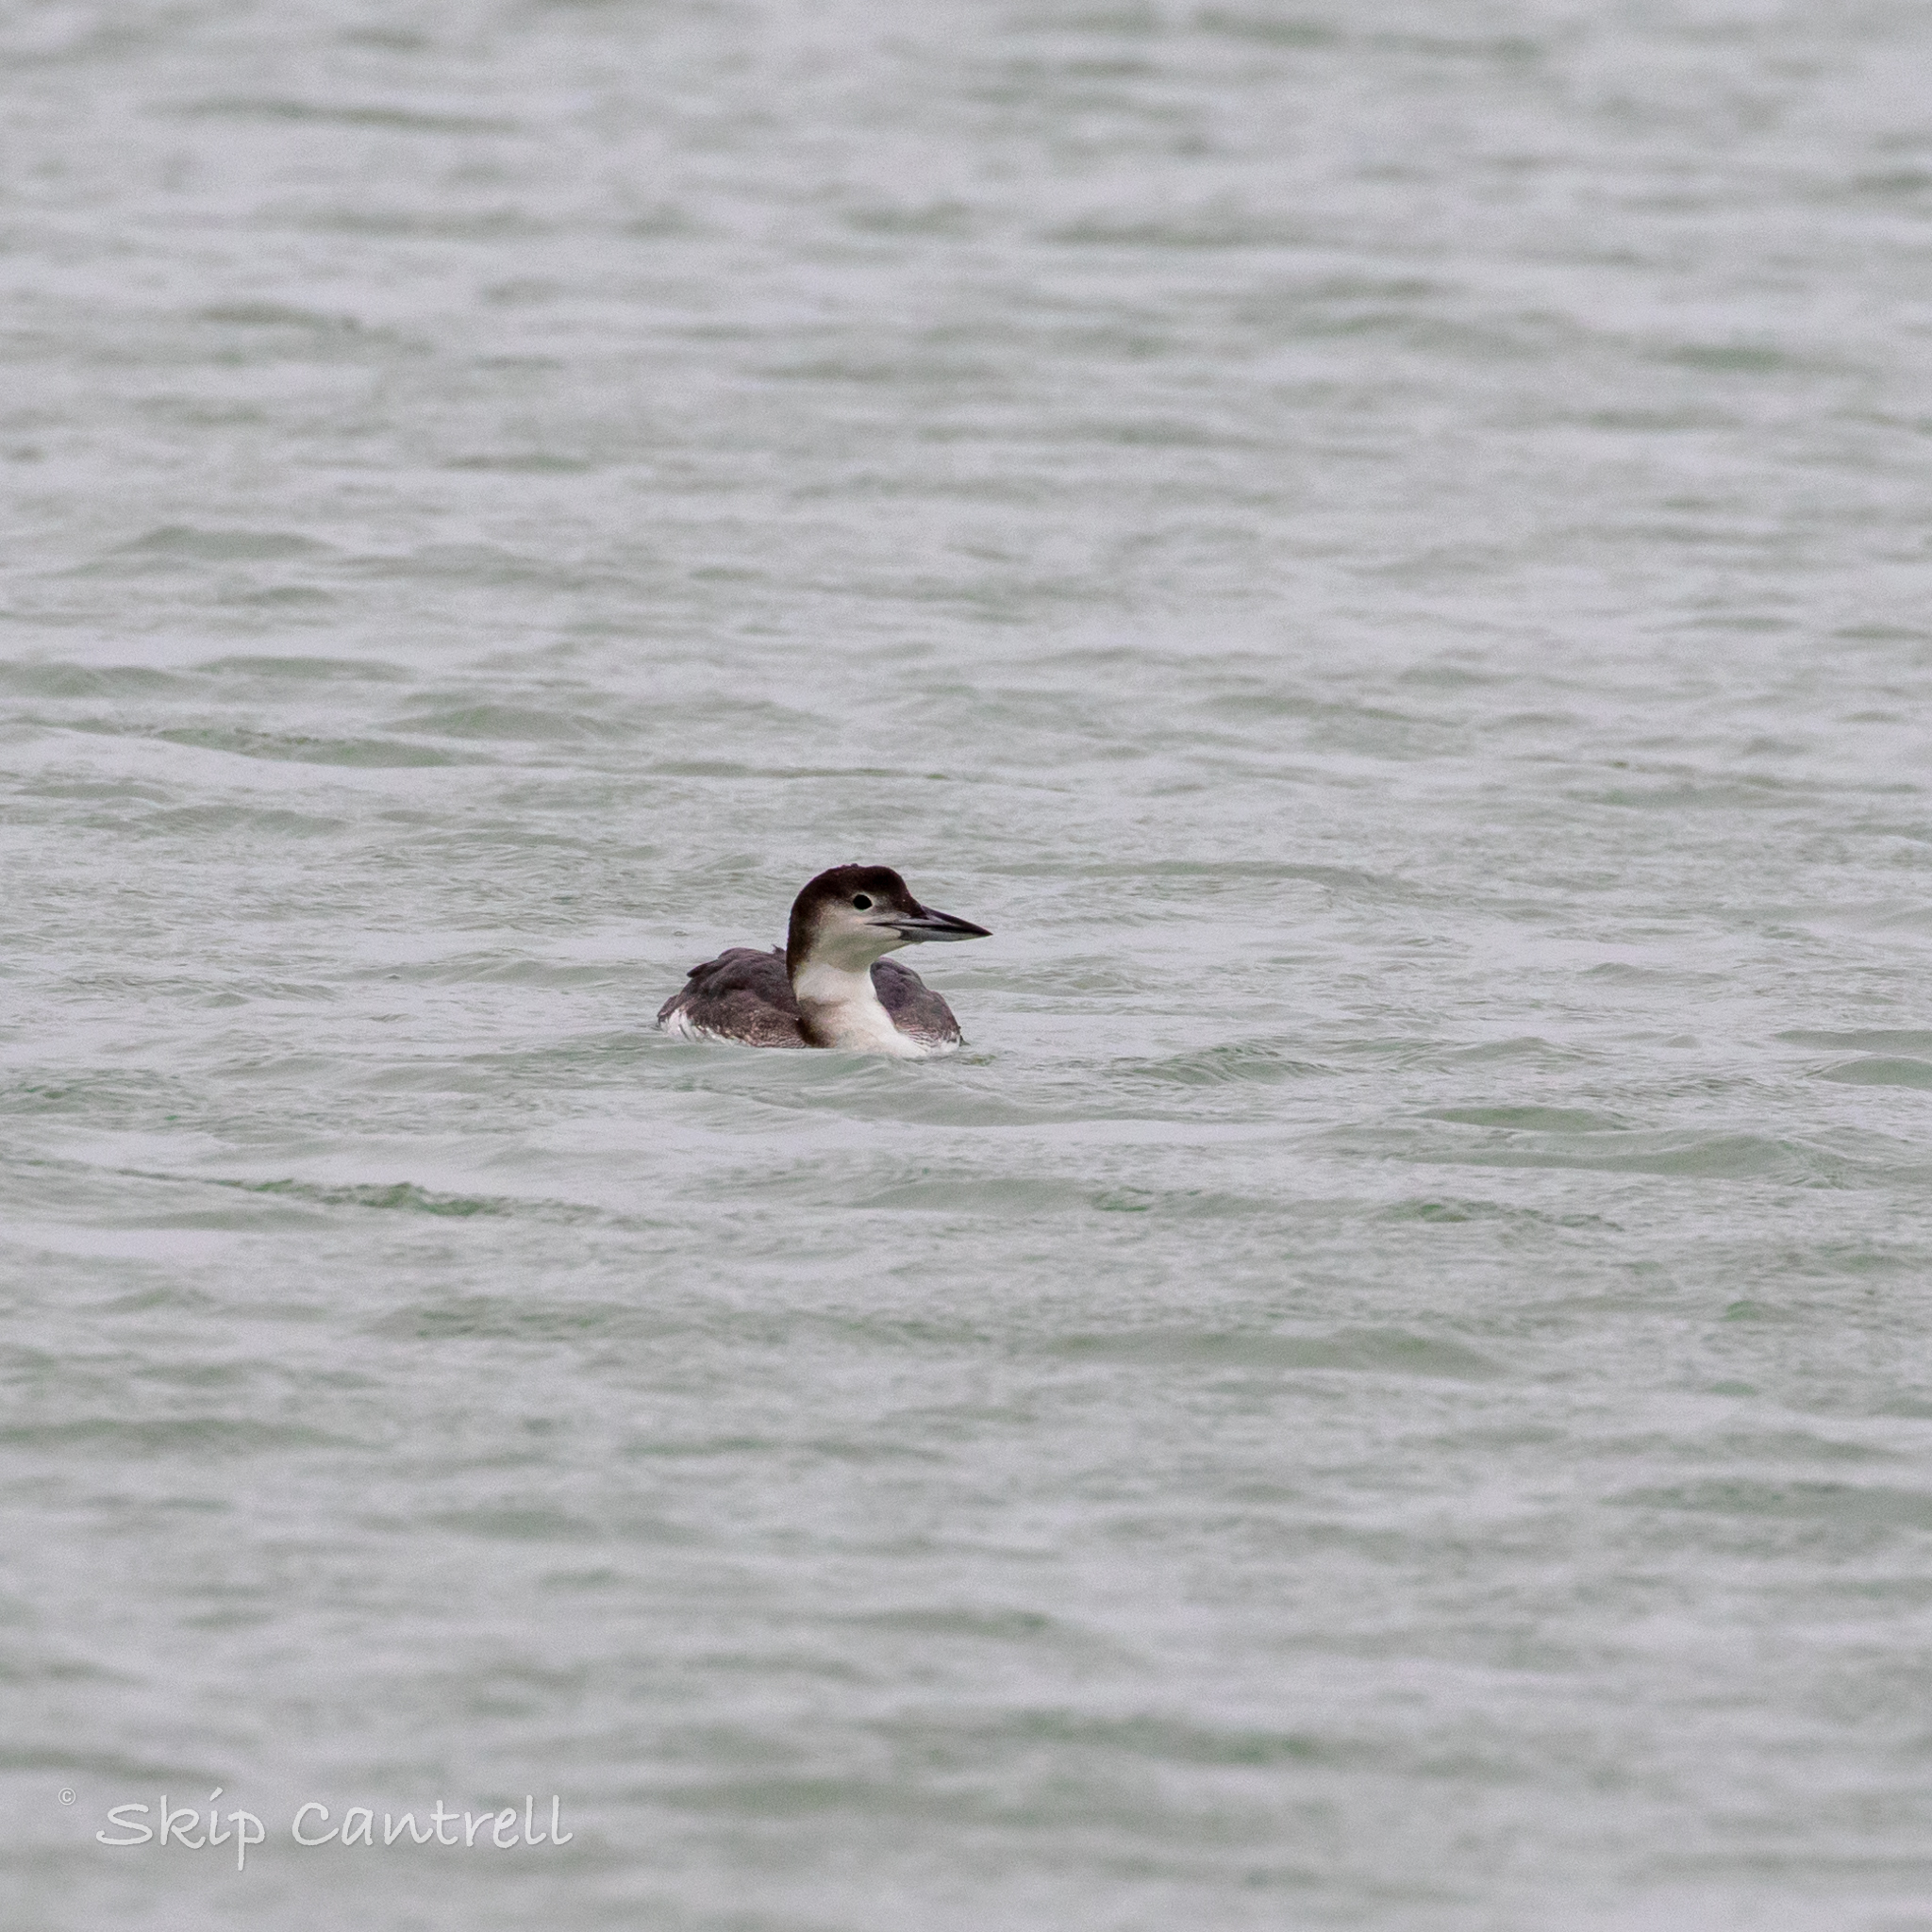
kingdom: Animalia
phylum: Chordata
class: Aves
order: Gaviiformes
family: Gaviidae
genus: Gavia
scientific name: Gavia immer
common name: Common loon
